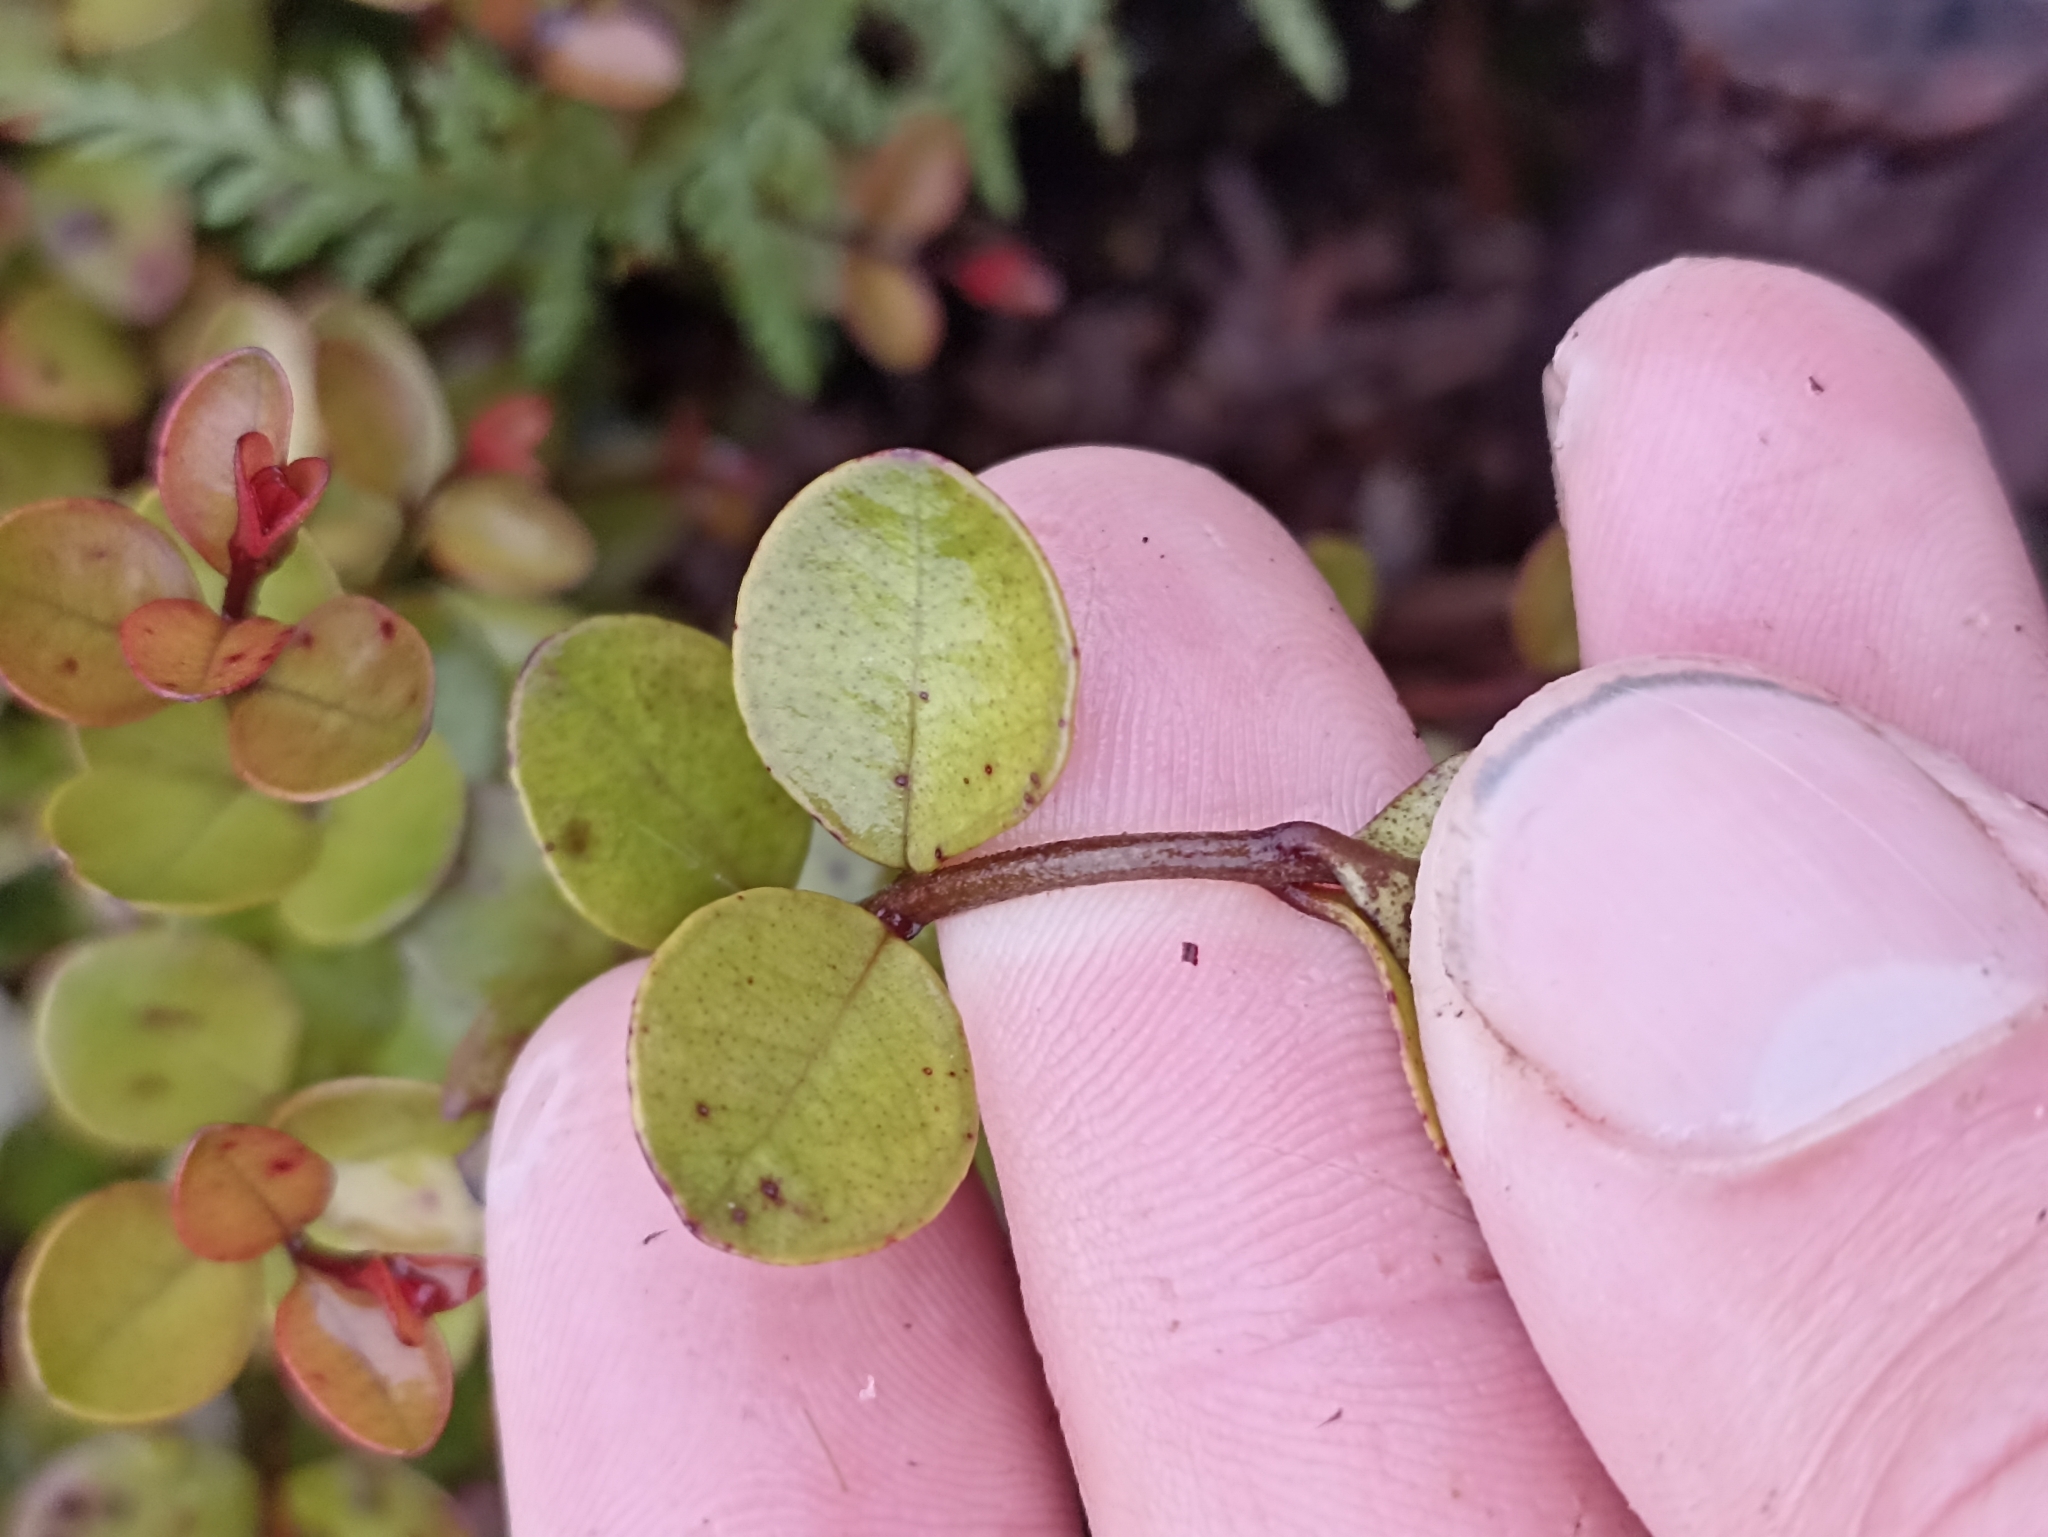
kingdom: Plantae
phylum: Tracheophyta
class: Magnoliopsida
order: Myrtales
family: Myrtaceae
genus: Metrosideros
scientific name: Metrosideros carminea
